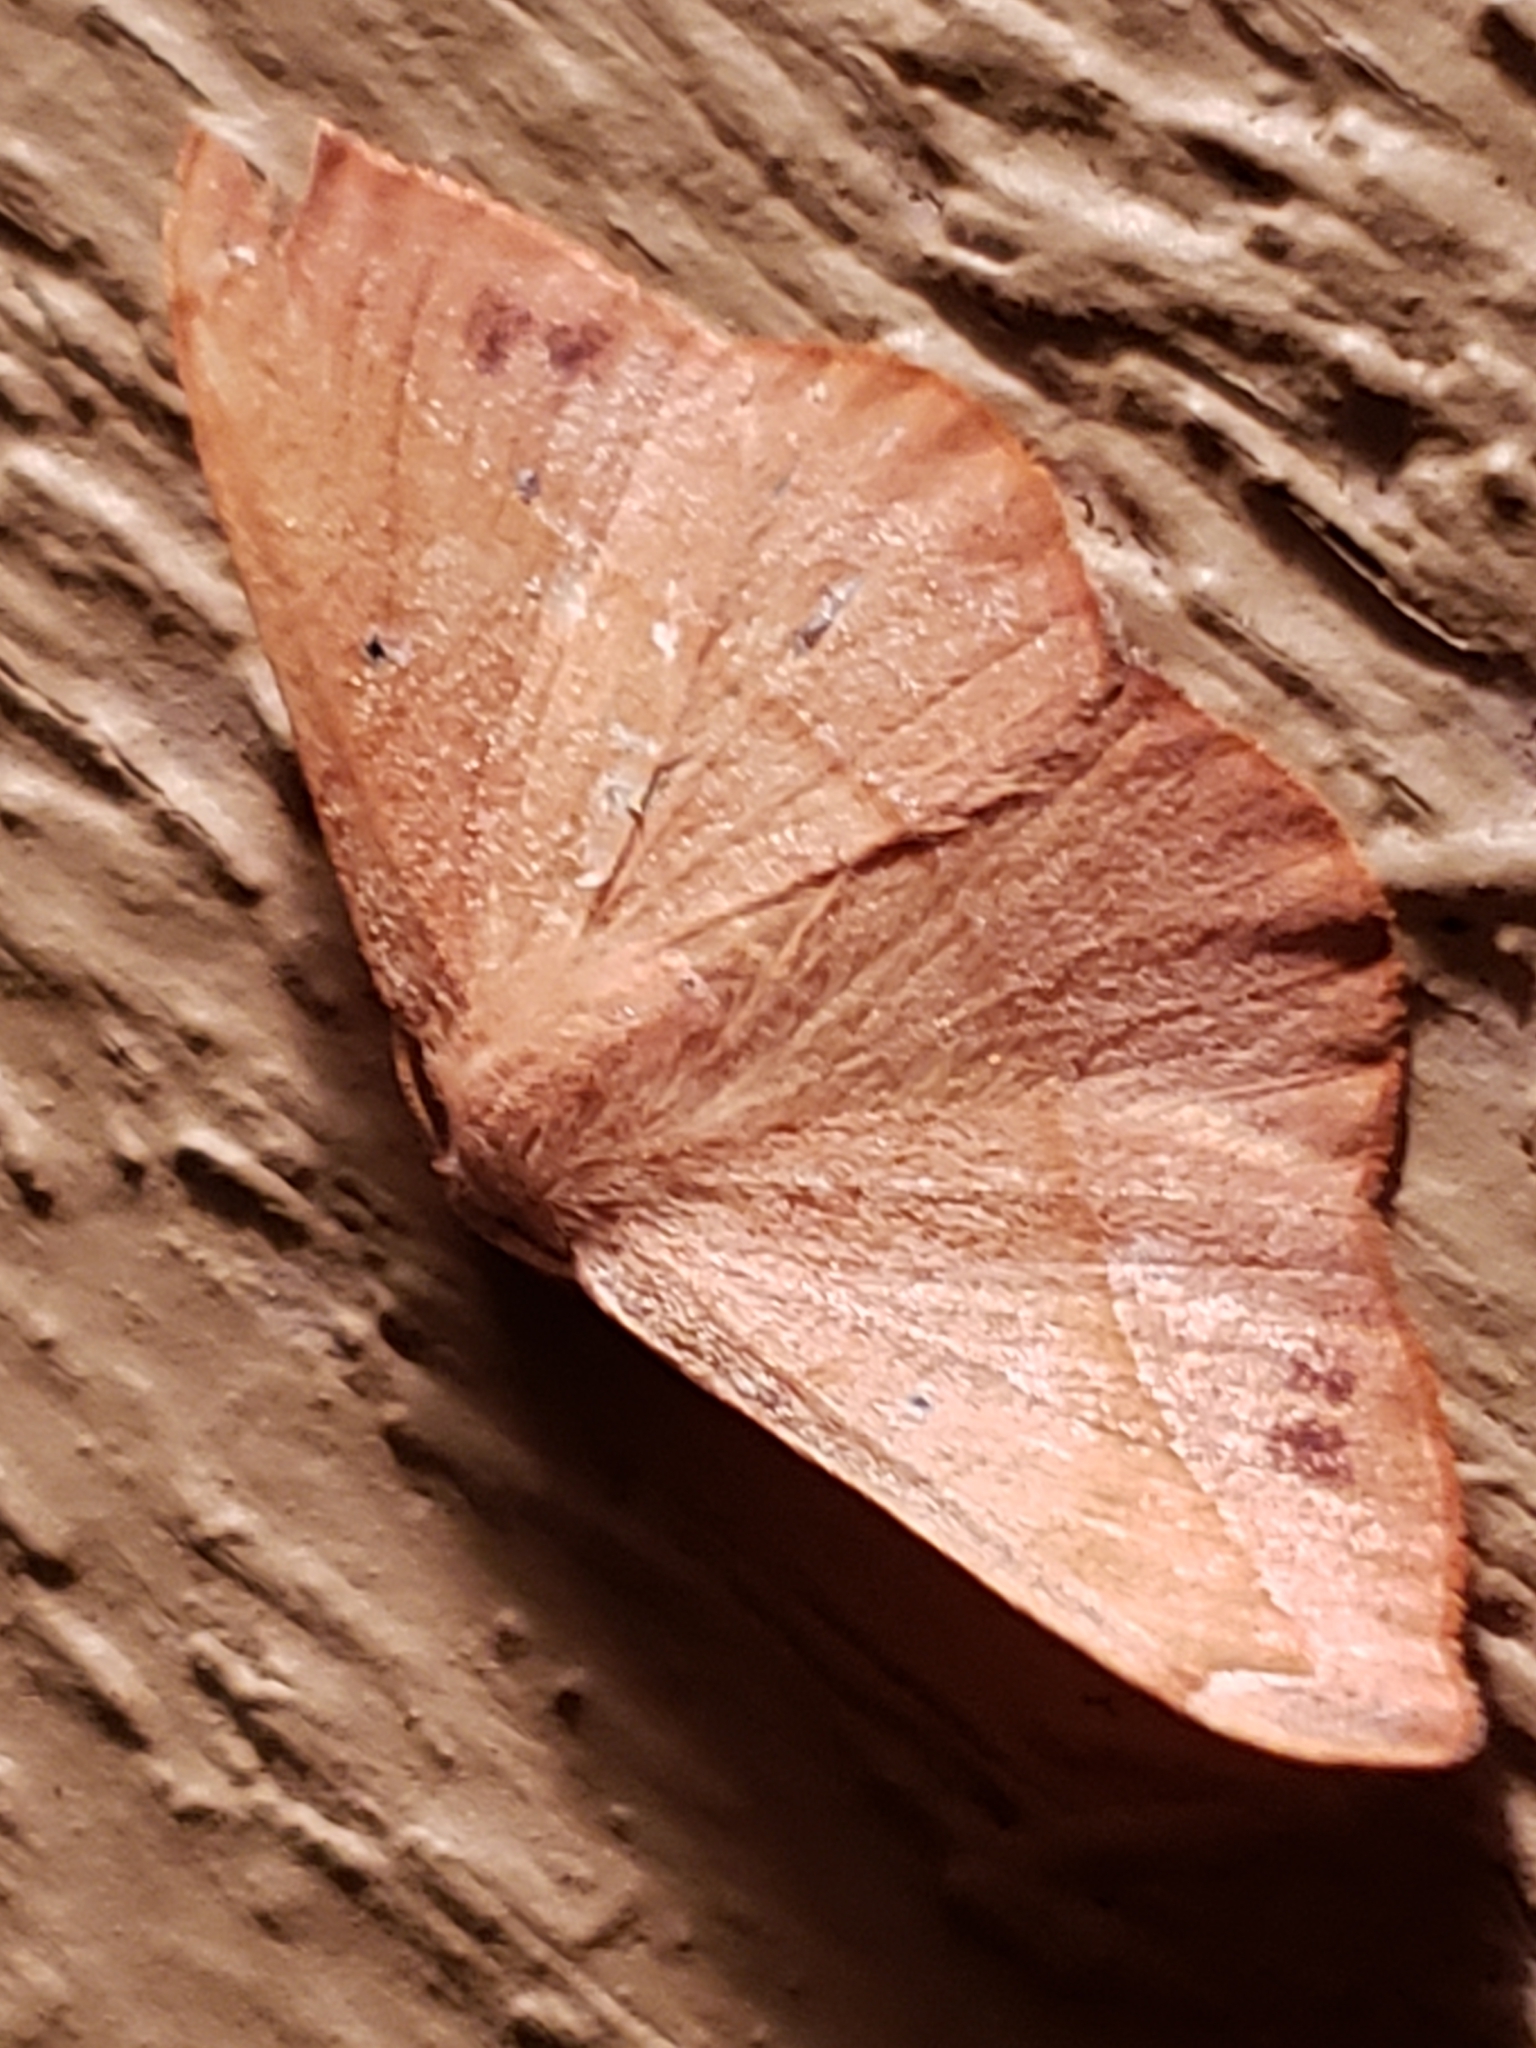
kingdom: Animalia
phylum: Arthropoda
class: Insecta
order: Lepidoptera
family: Geometridae
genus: Patalene
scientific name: Patalene olyzonaria
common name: Juniper geometer moth
